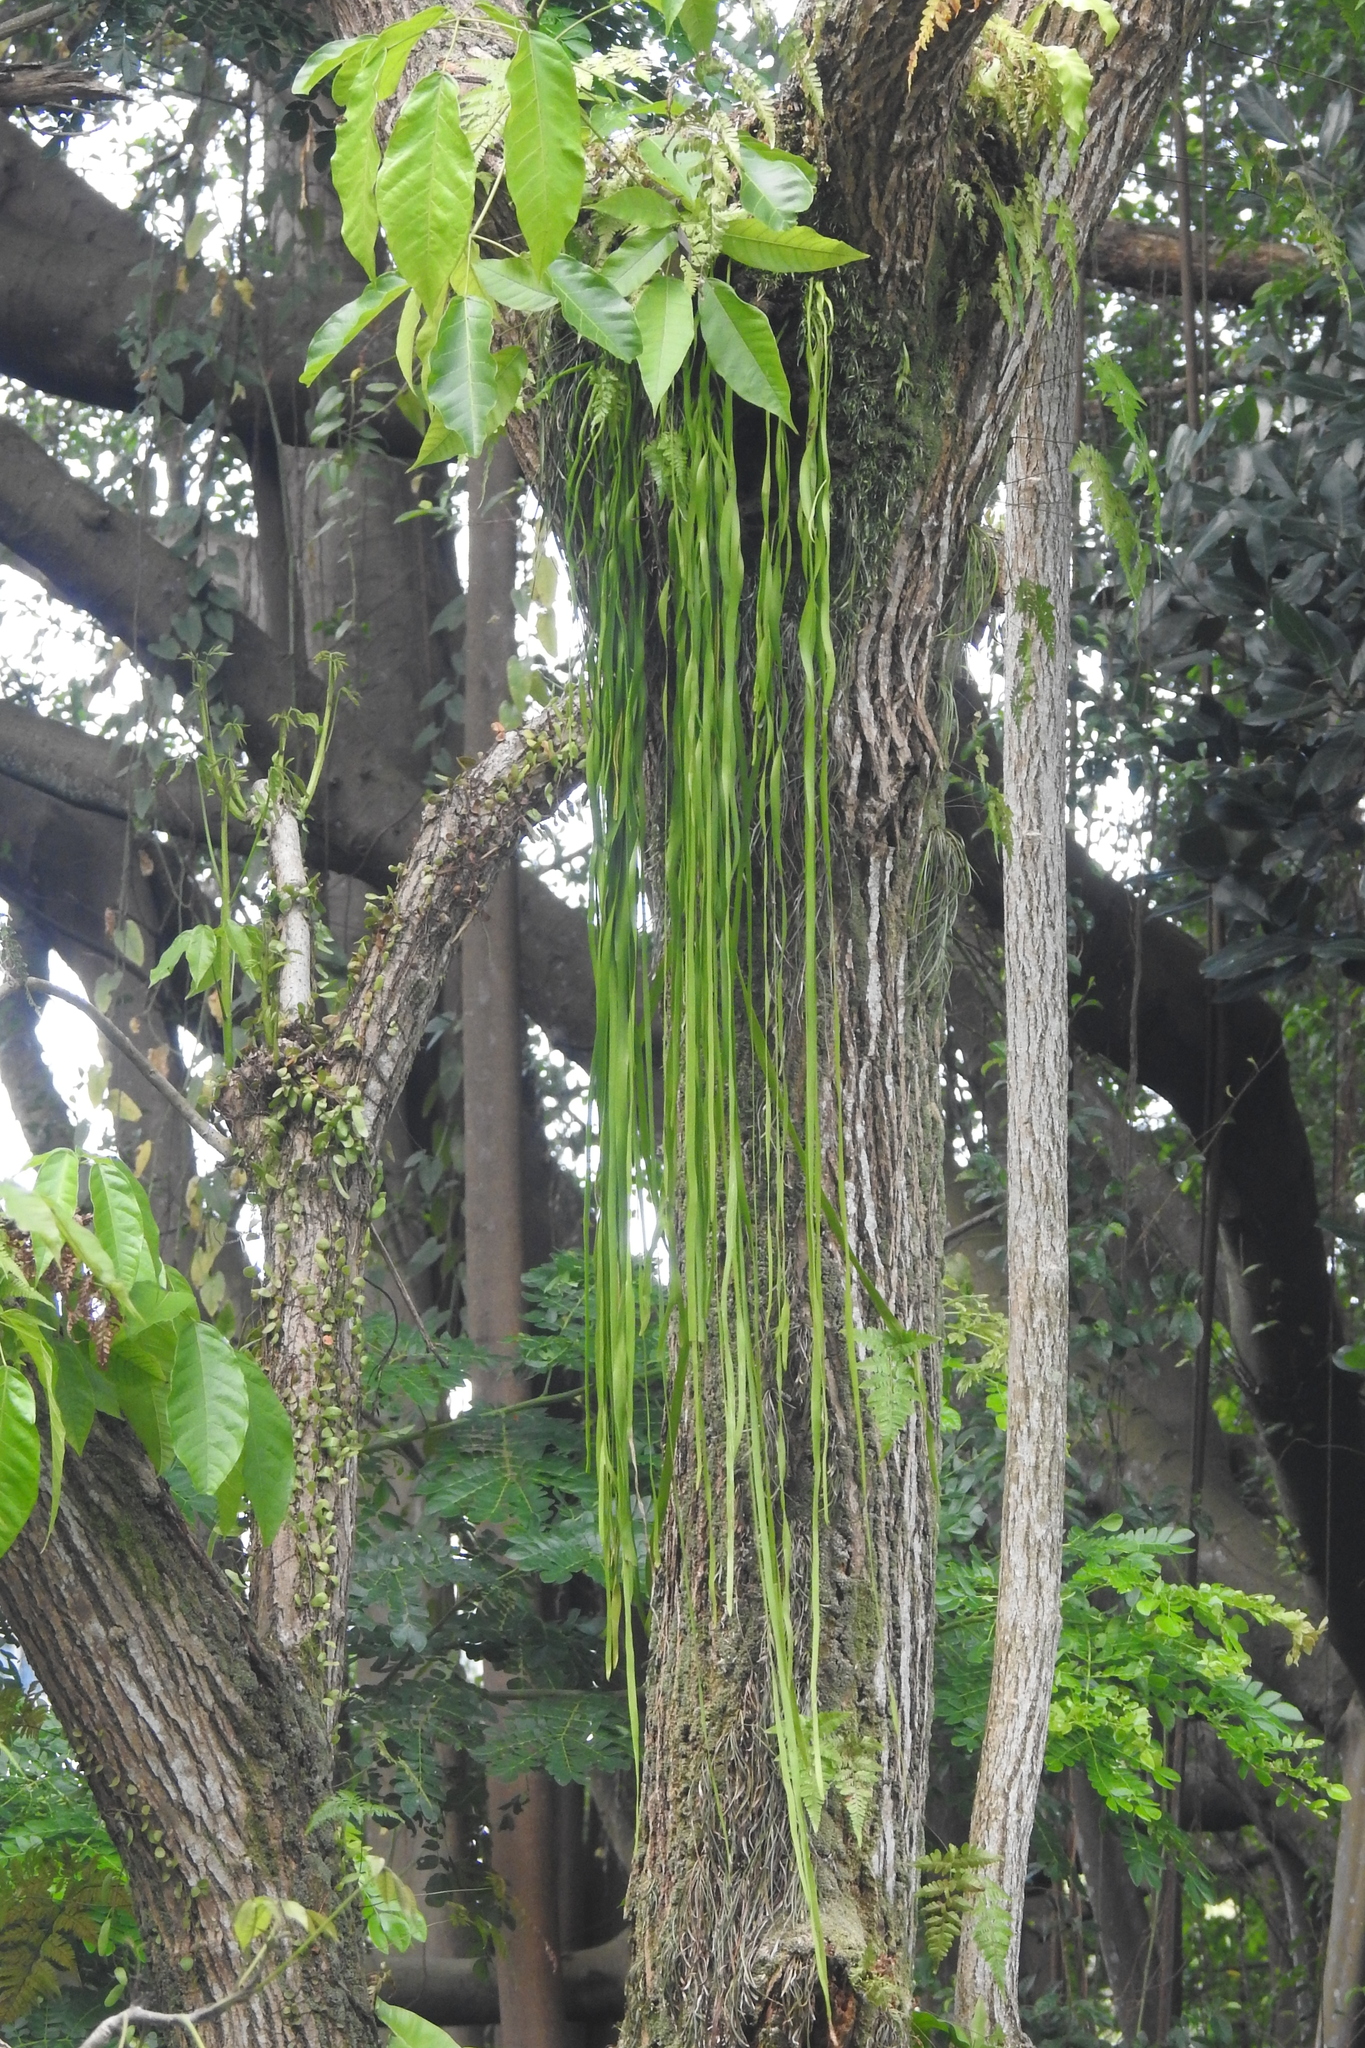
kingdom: Plantae
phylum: Tracheophyta
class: Polypodiopsida
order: Ophioglossales
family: Ophioglossaceae
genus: Ophioderma
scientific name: Ophioderma pendulum
